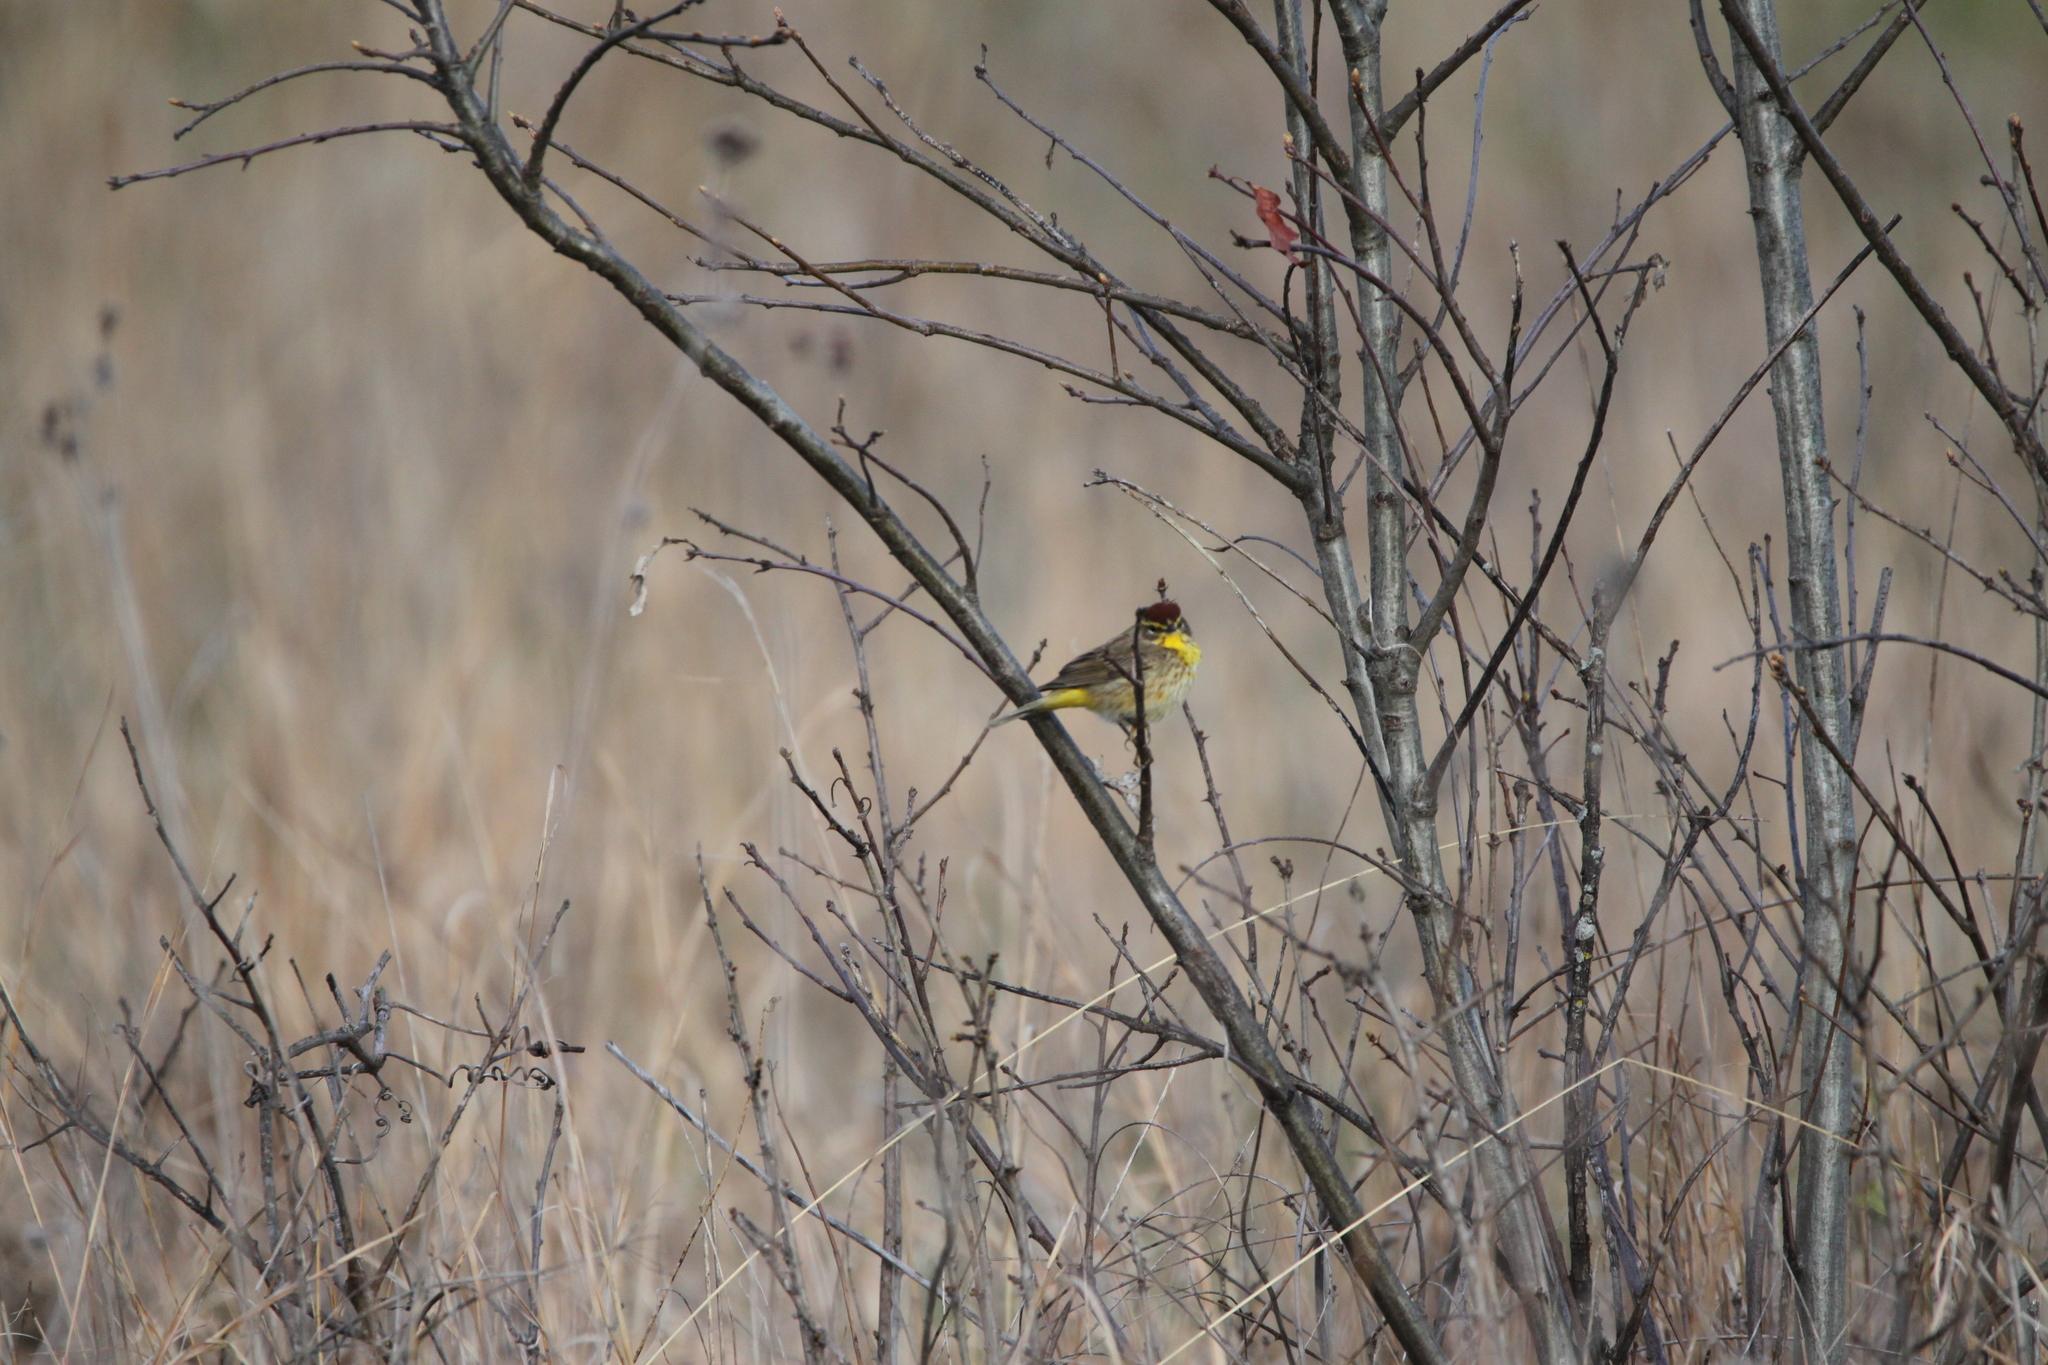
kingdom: Animalia
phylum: Chordata
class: Aves
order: Passeriformes
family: Parulidae
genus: Setophaga
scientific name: Setophaga palmarum
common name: Palm warbler
